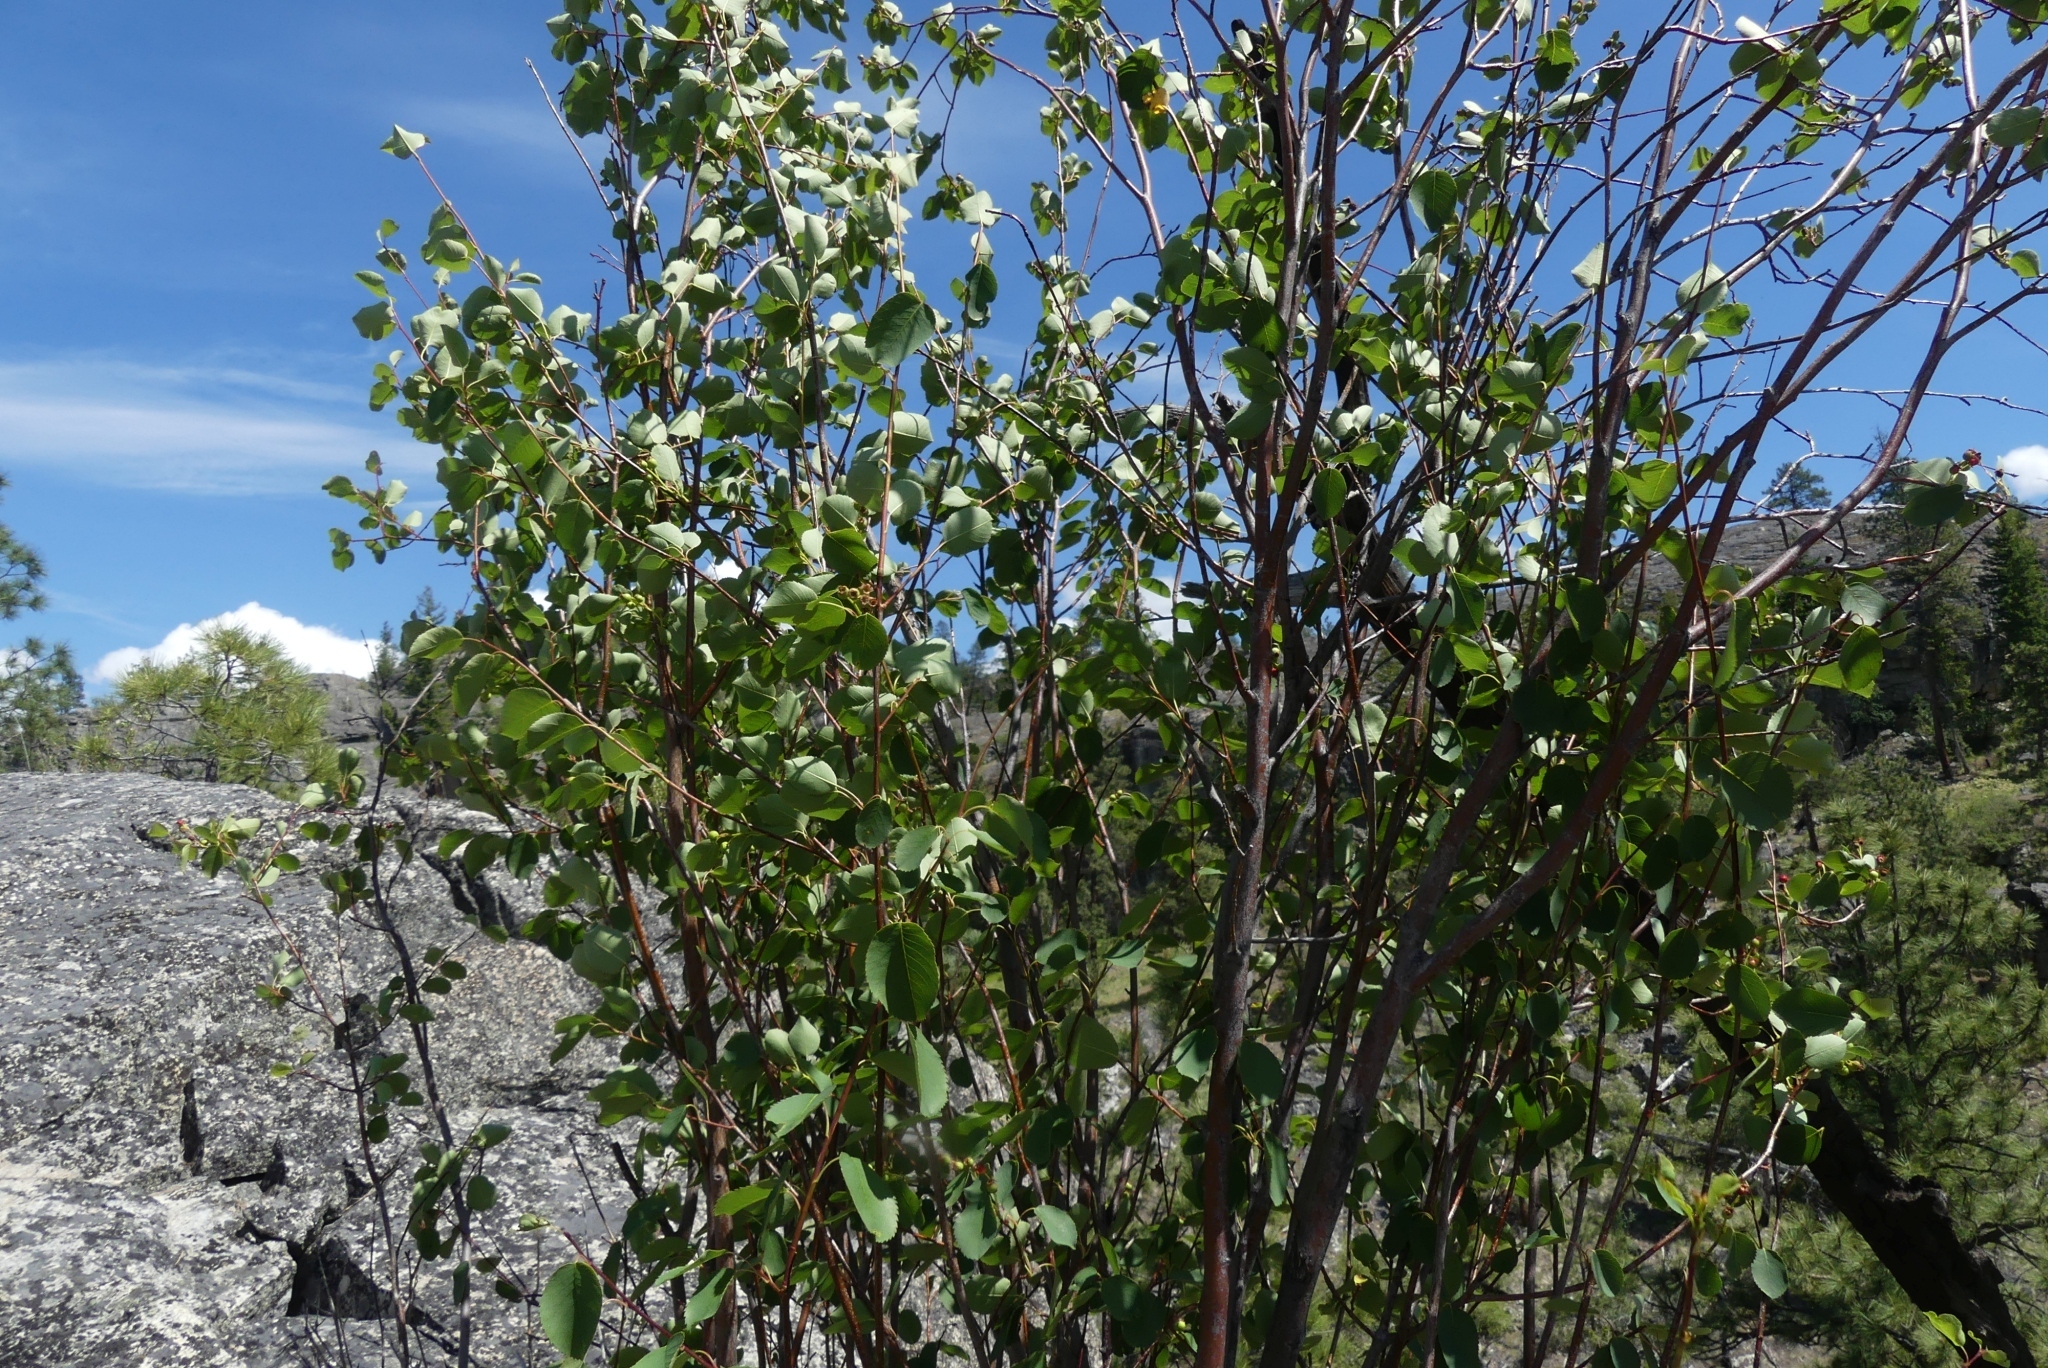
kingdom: Plantae
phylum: Tracheophyta
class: Magnoliopsida
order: Rosales
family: Rosaceae
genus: Amelanchier
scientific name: Amelanchier alnifolia
